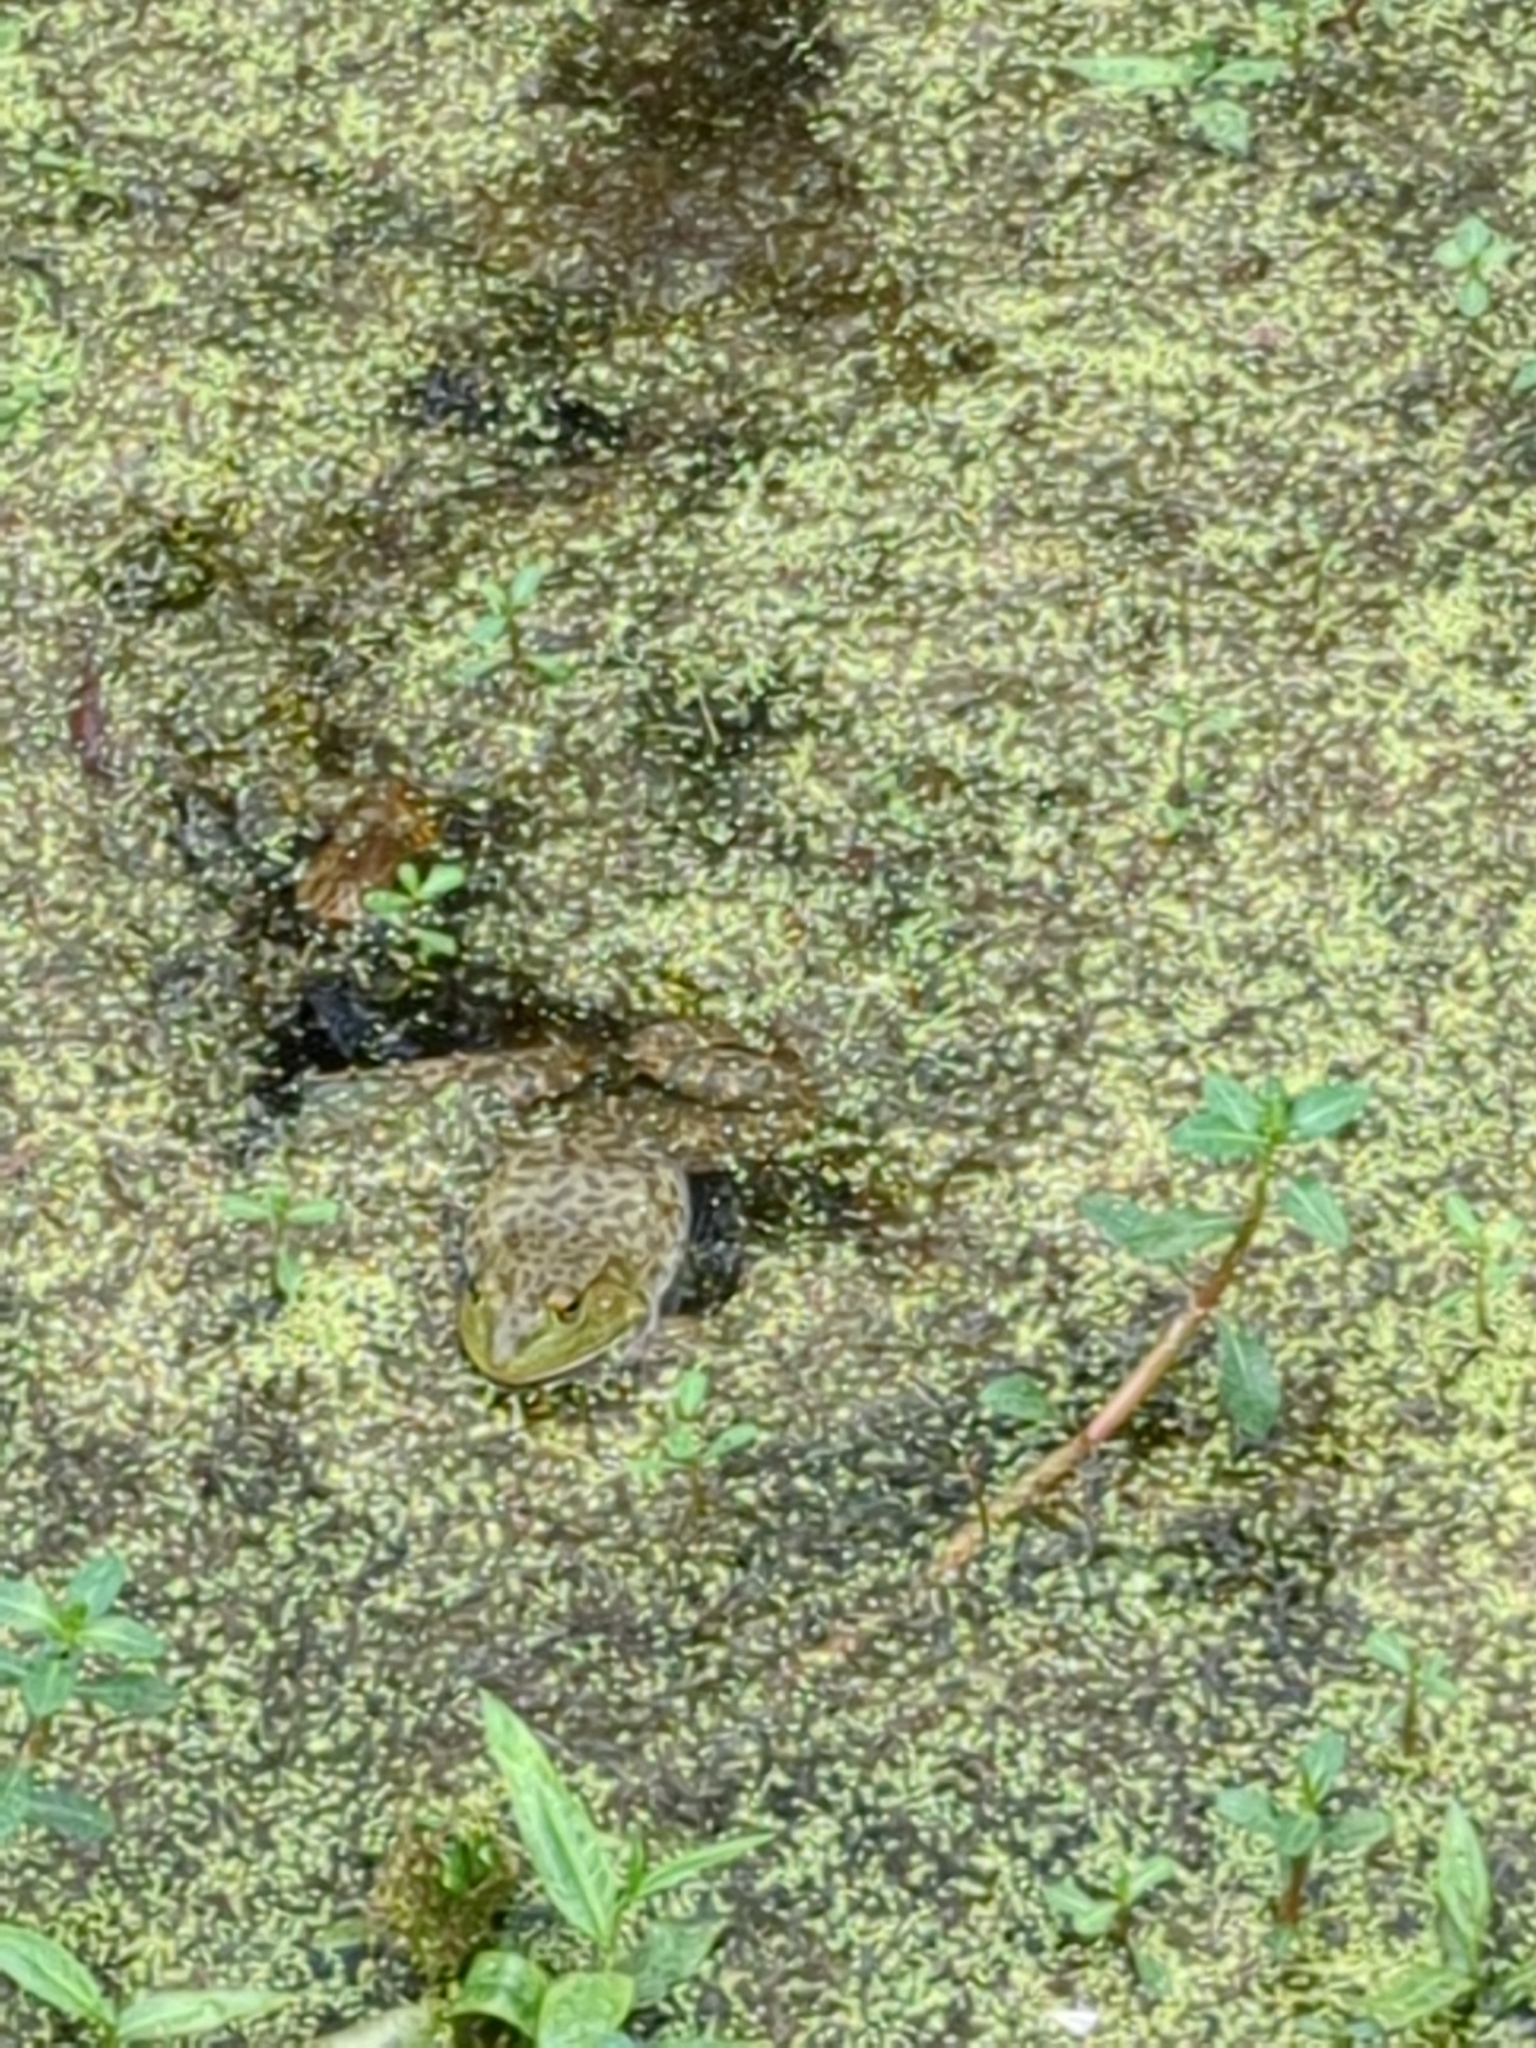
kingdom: Animalia
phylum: Chordata
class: Amphibia
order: Anura
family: Ranidae
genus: Lithobates
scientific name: Lithobates catesbeianus
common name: American bullfrog
